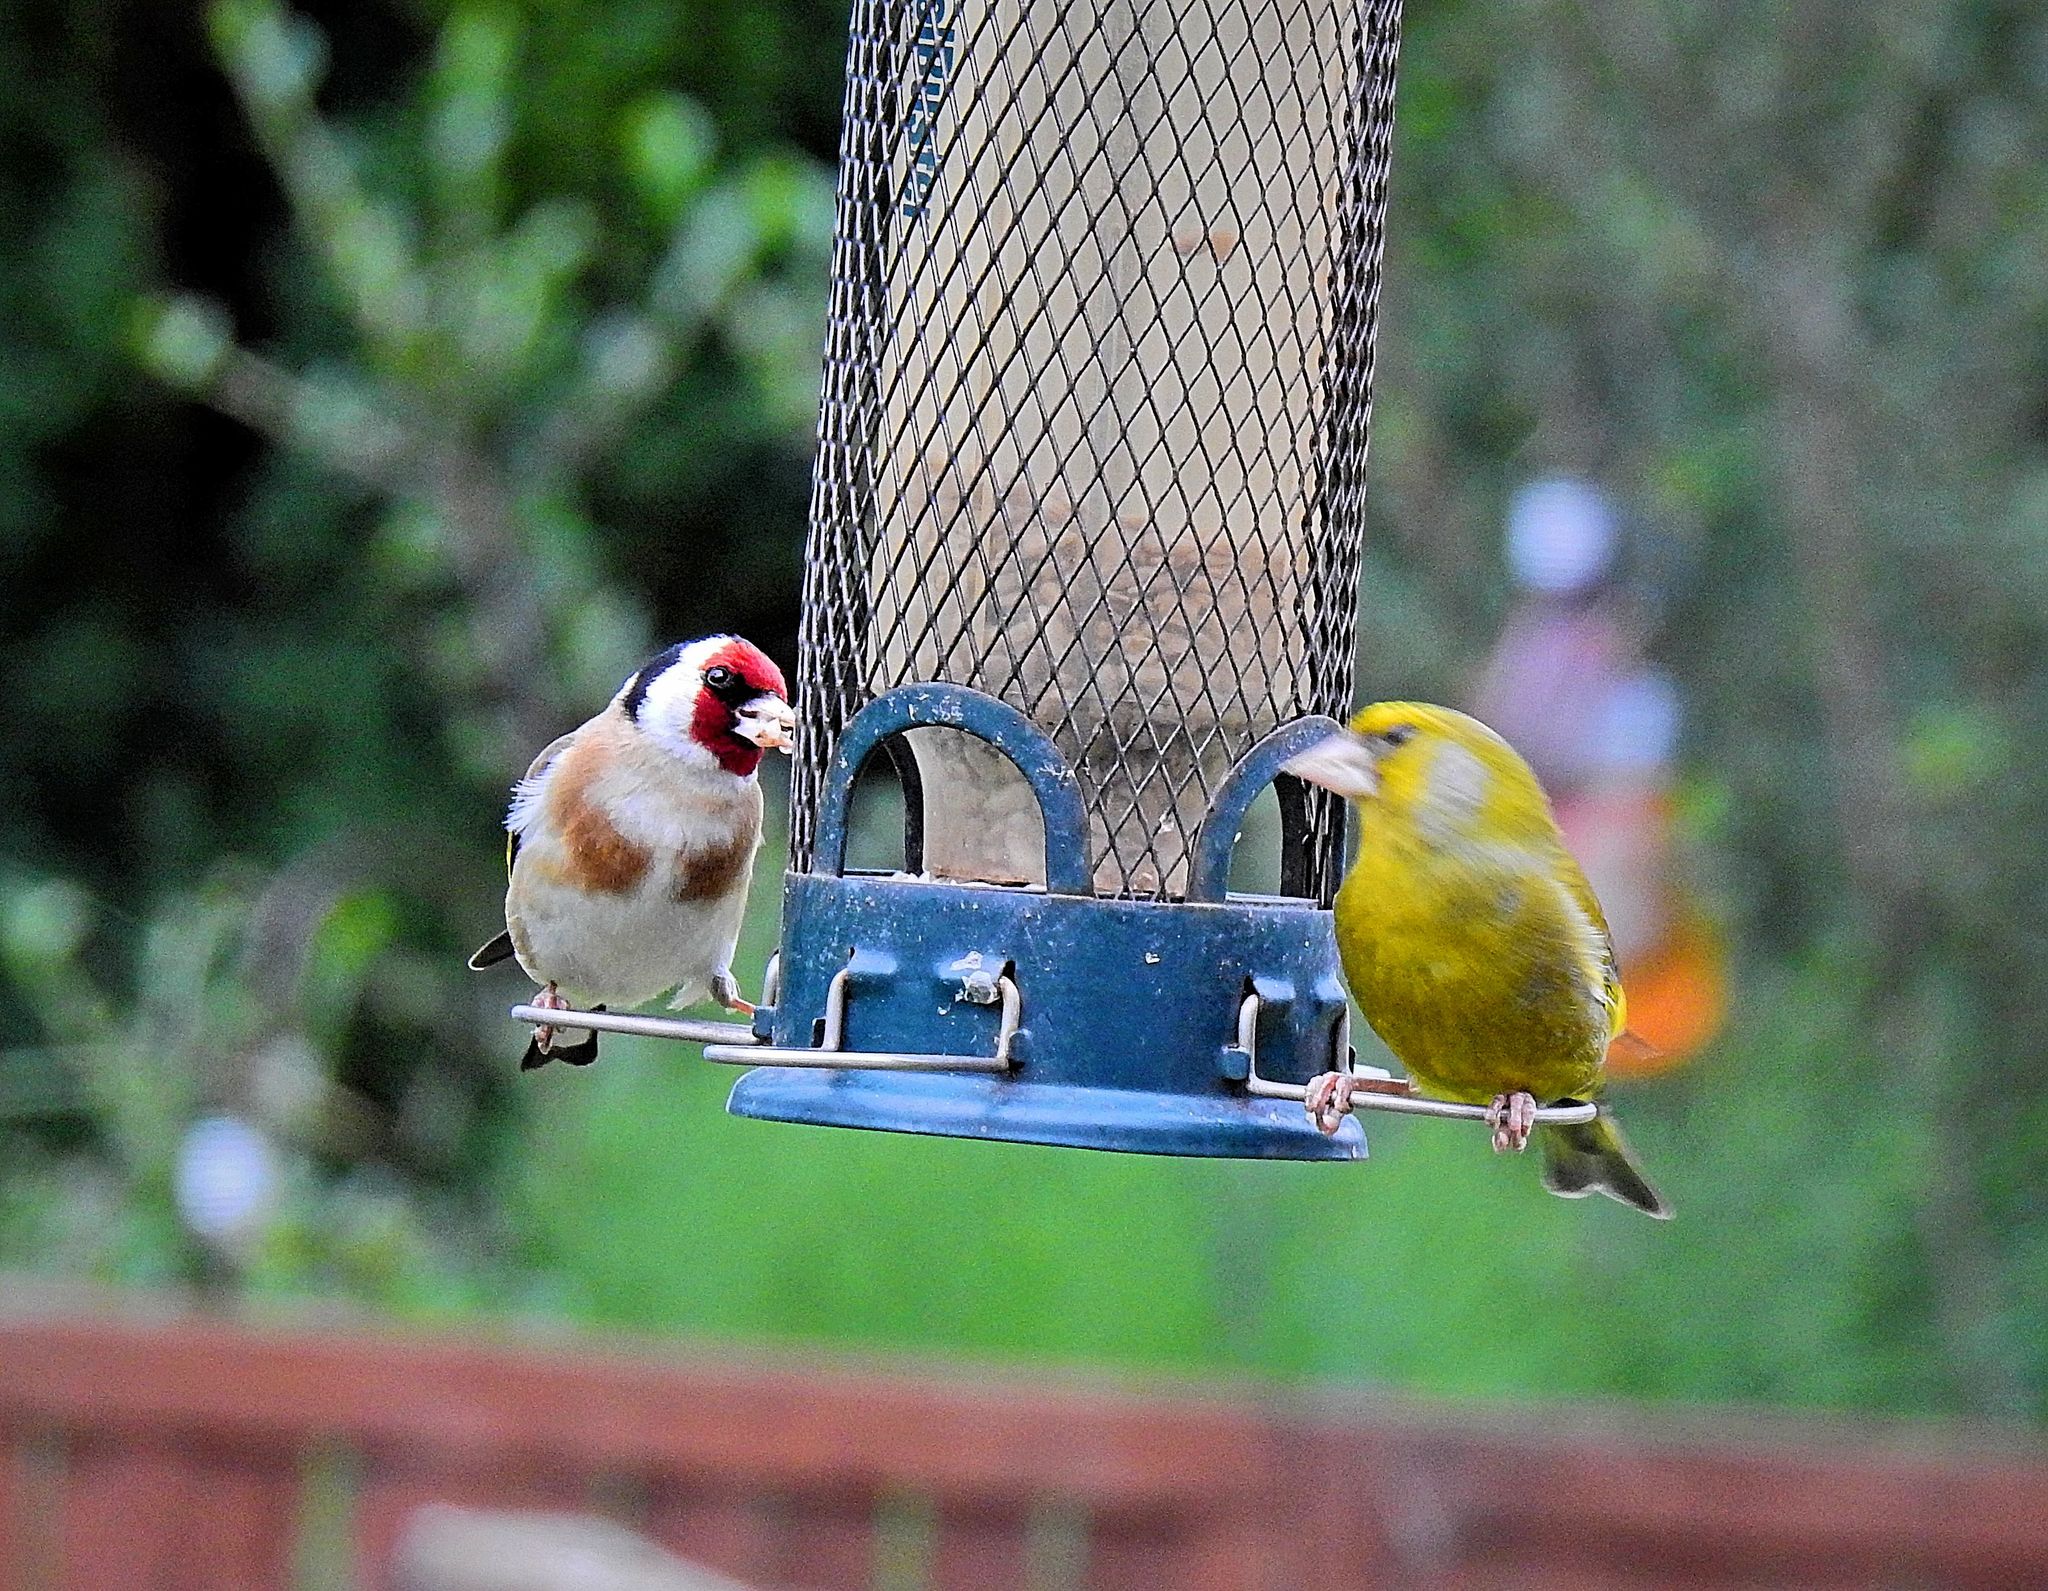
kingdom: Plantae
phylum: Tracheophyta
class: Liliopsida
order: Poales
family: Poaceae
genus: Chloris
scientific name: Chloris chloris
